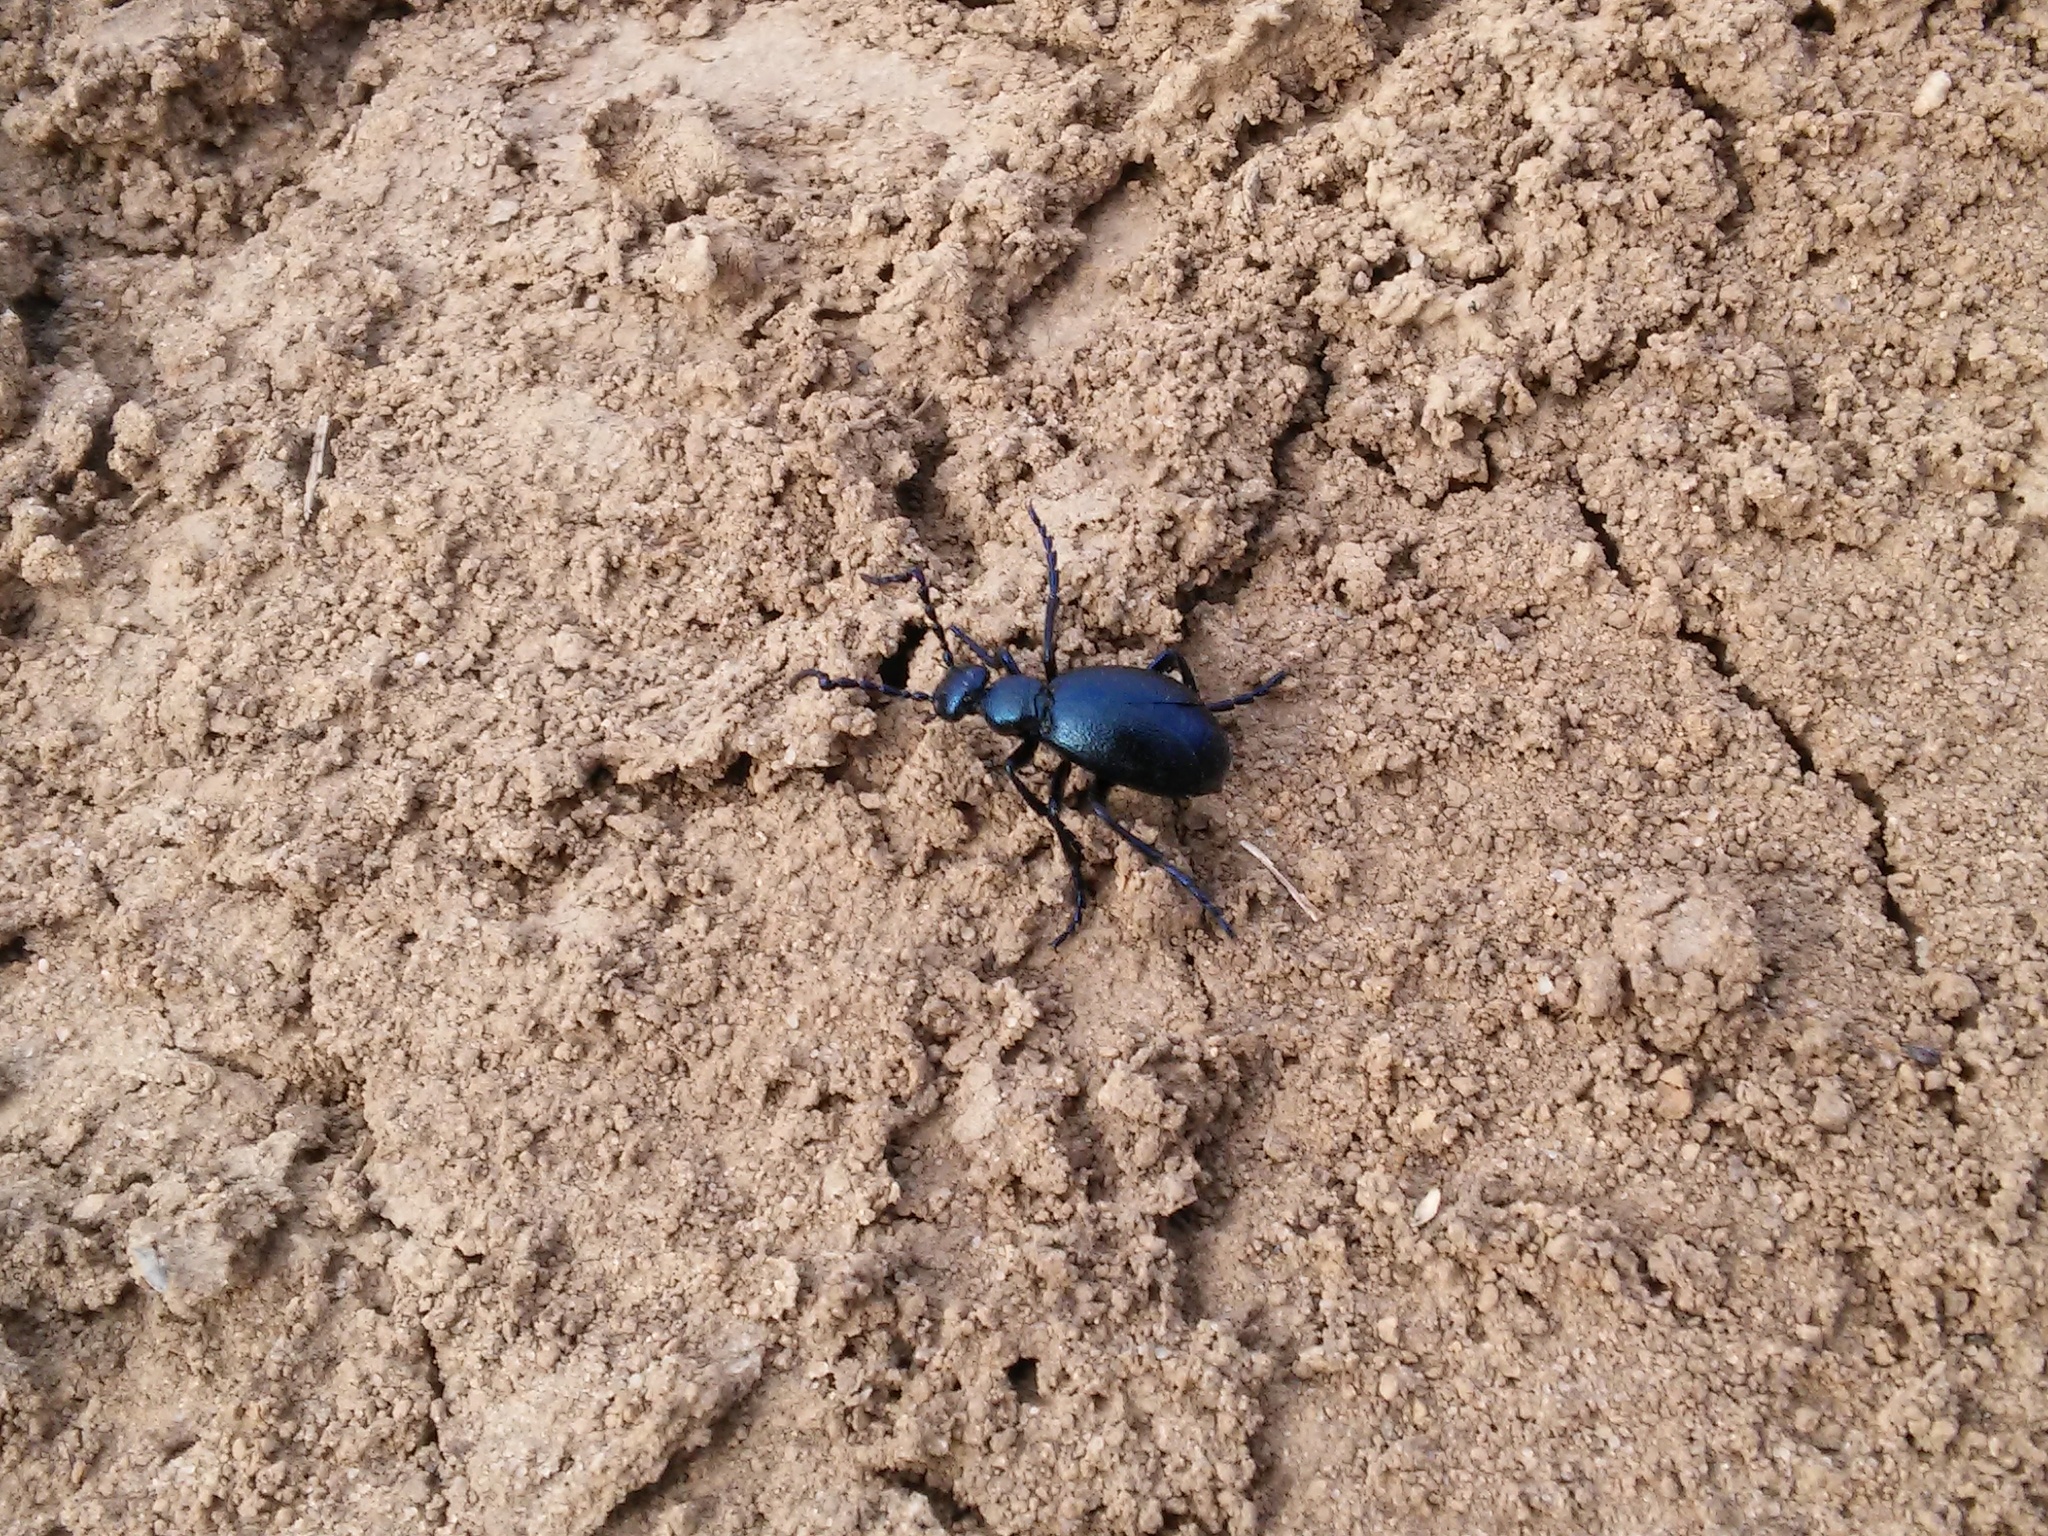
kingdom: Animalia
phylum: Arthropoda
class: Insecta
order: Coleoptera
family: Meloidae
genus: Meloe
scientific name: Meloe violaceus
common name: Violet oil-beetle
